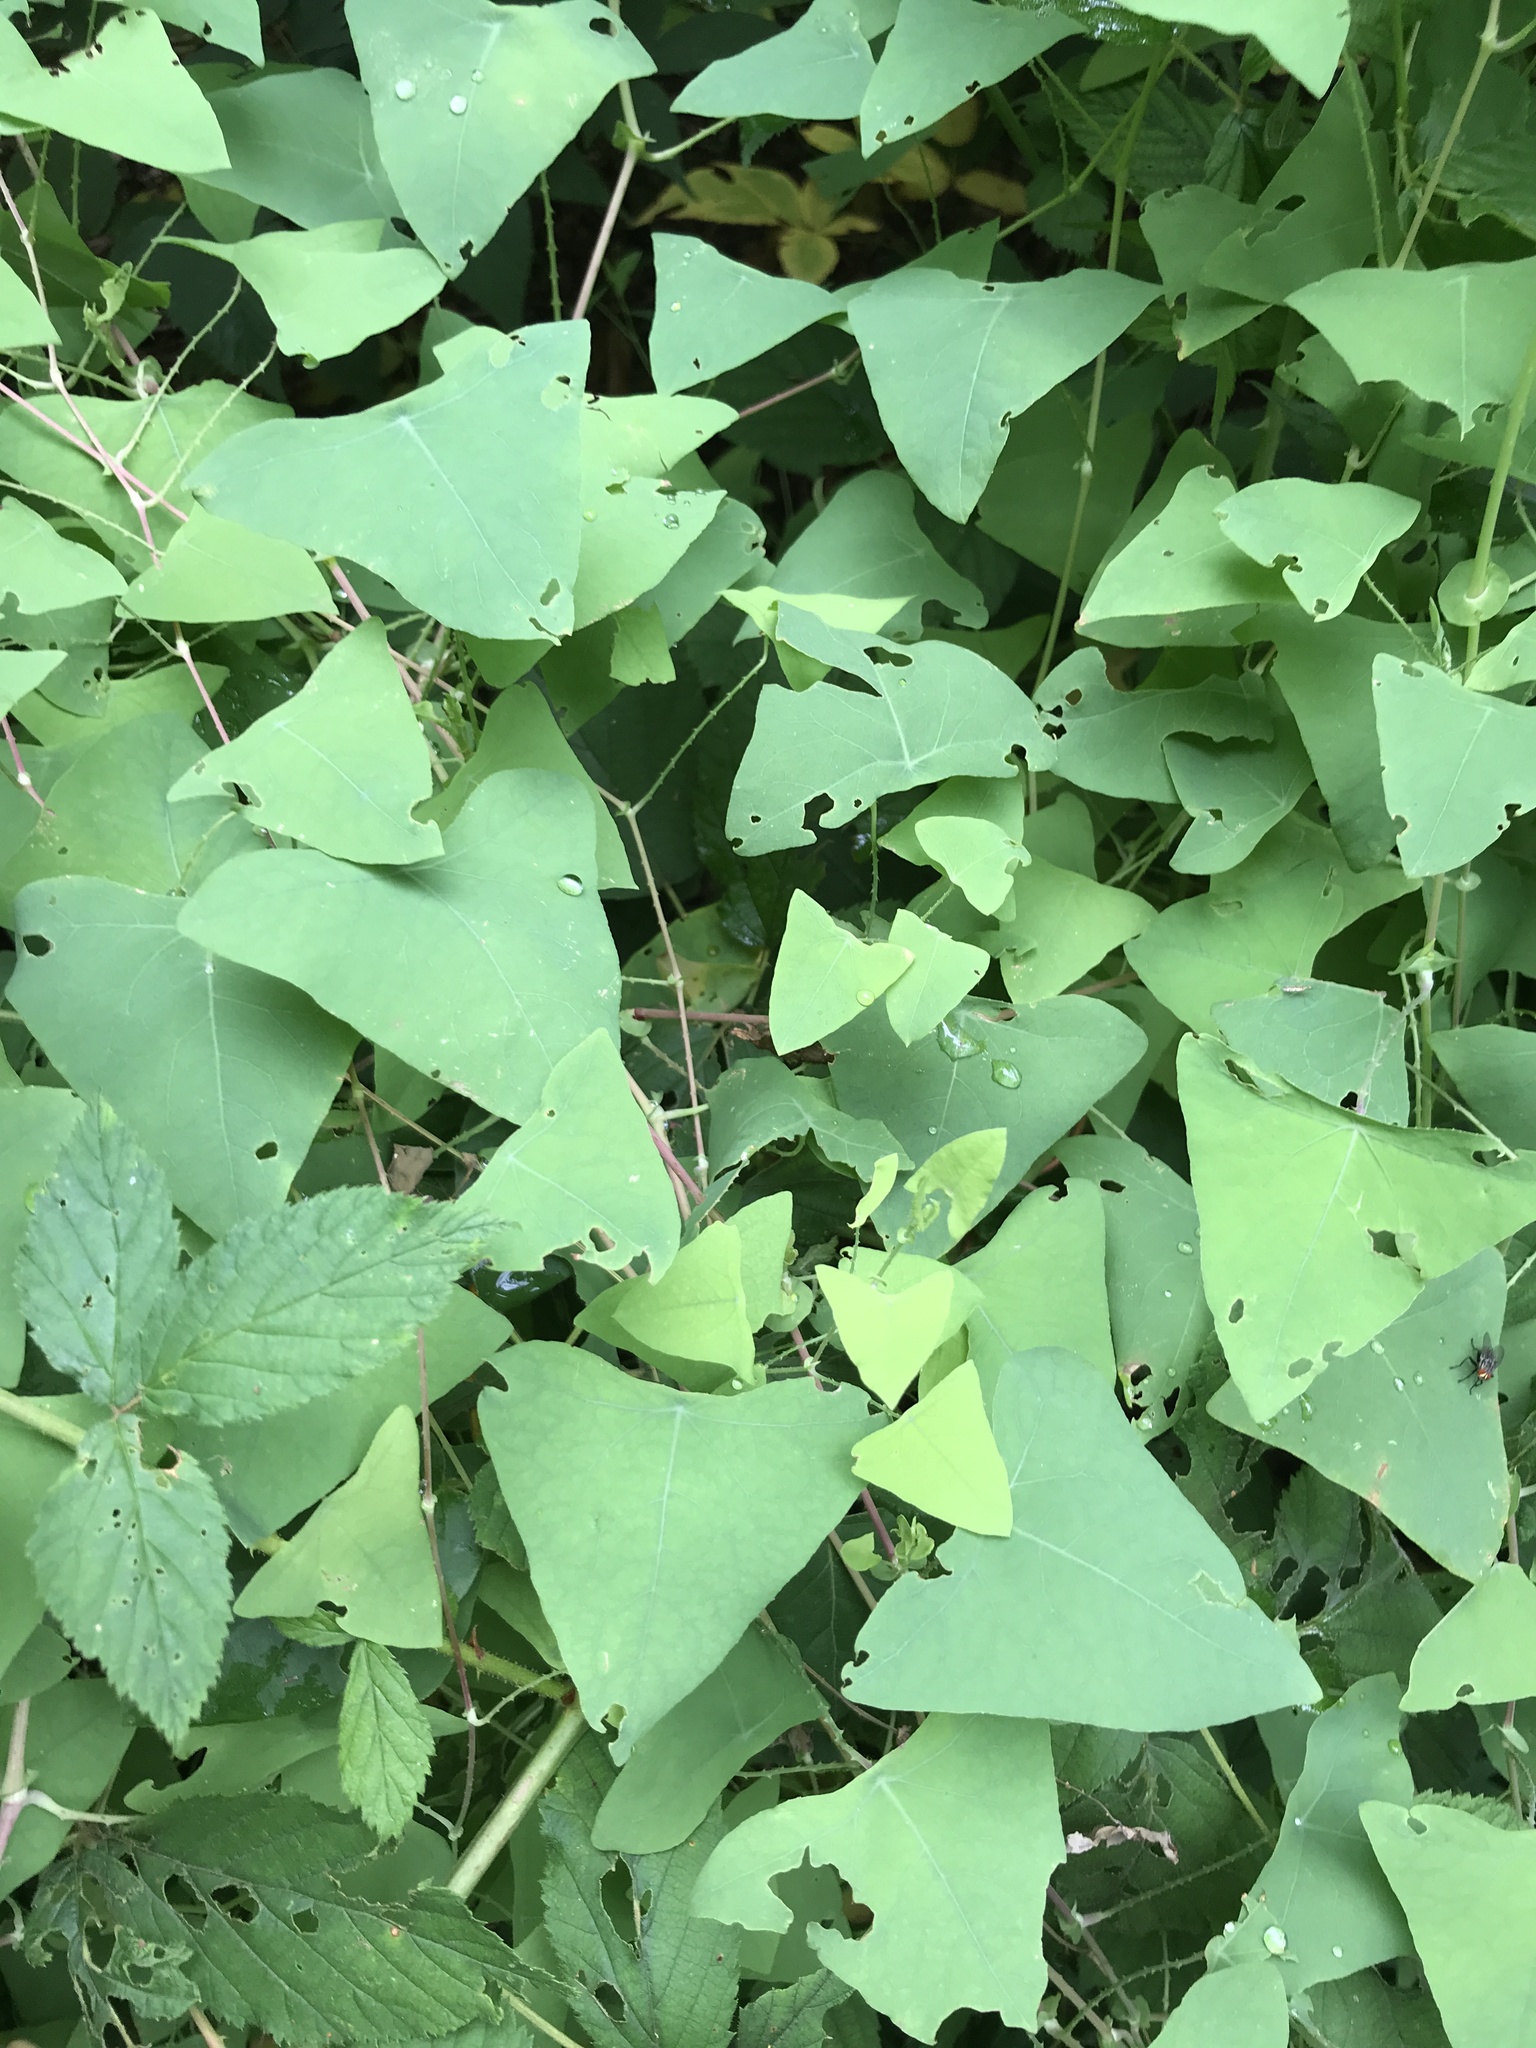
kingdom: Plantae
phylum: Tracheophyta
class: Magnoliopsida
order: Caryophyllales
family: Polygonaceae
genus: Persicaria
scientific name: Persicaria perfoliata
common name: Asiatic tearthumb
